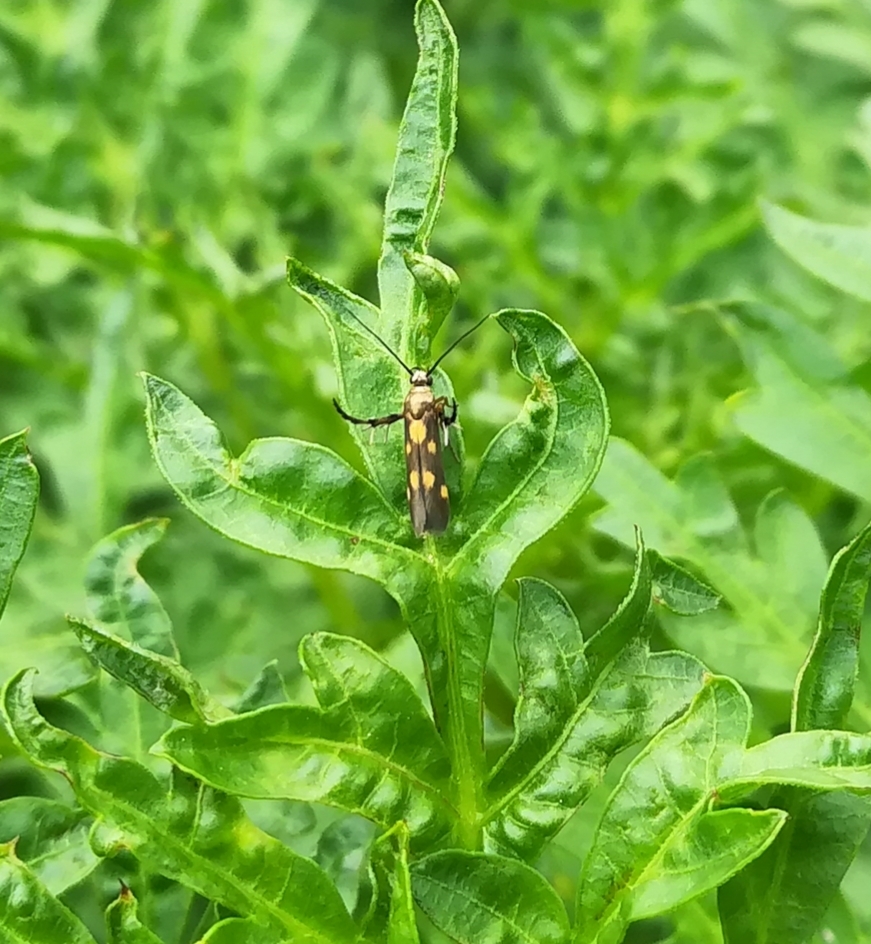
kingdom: Animalia
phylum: Arthropoda
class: Insecta
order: Lepidoptera
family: Scythrididae
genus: Eretmocera
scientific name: Eretmocera impactella
